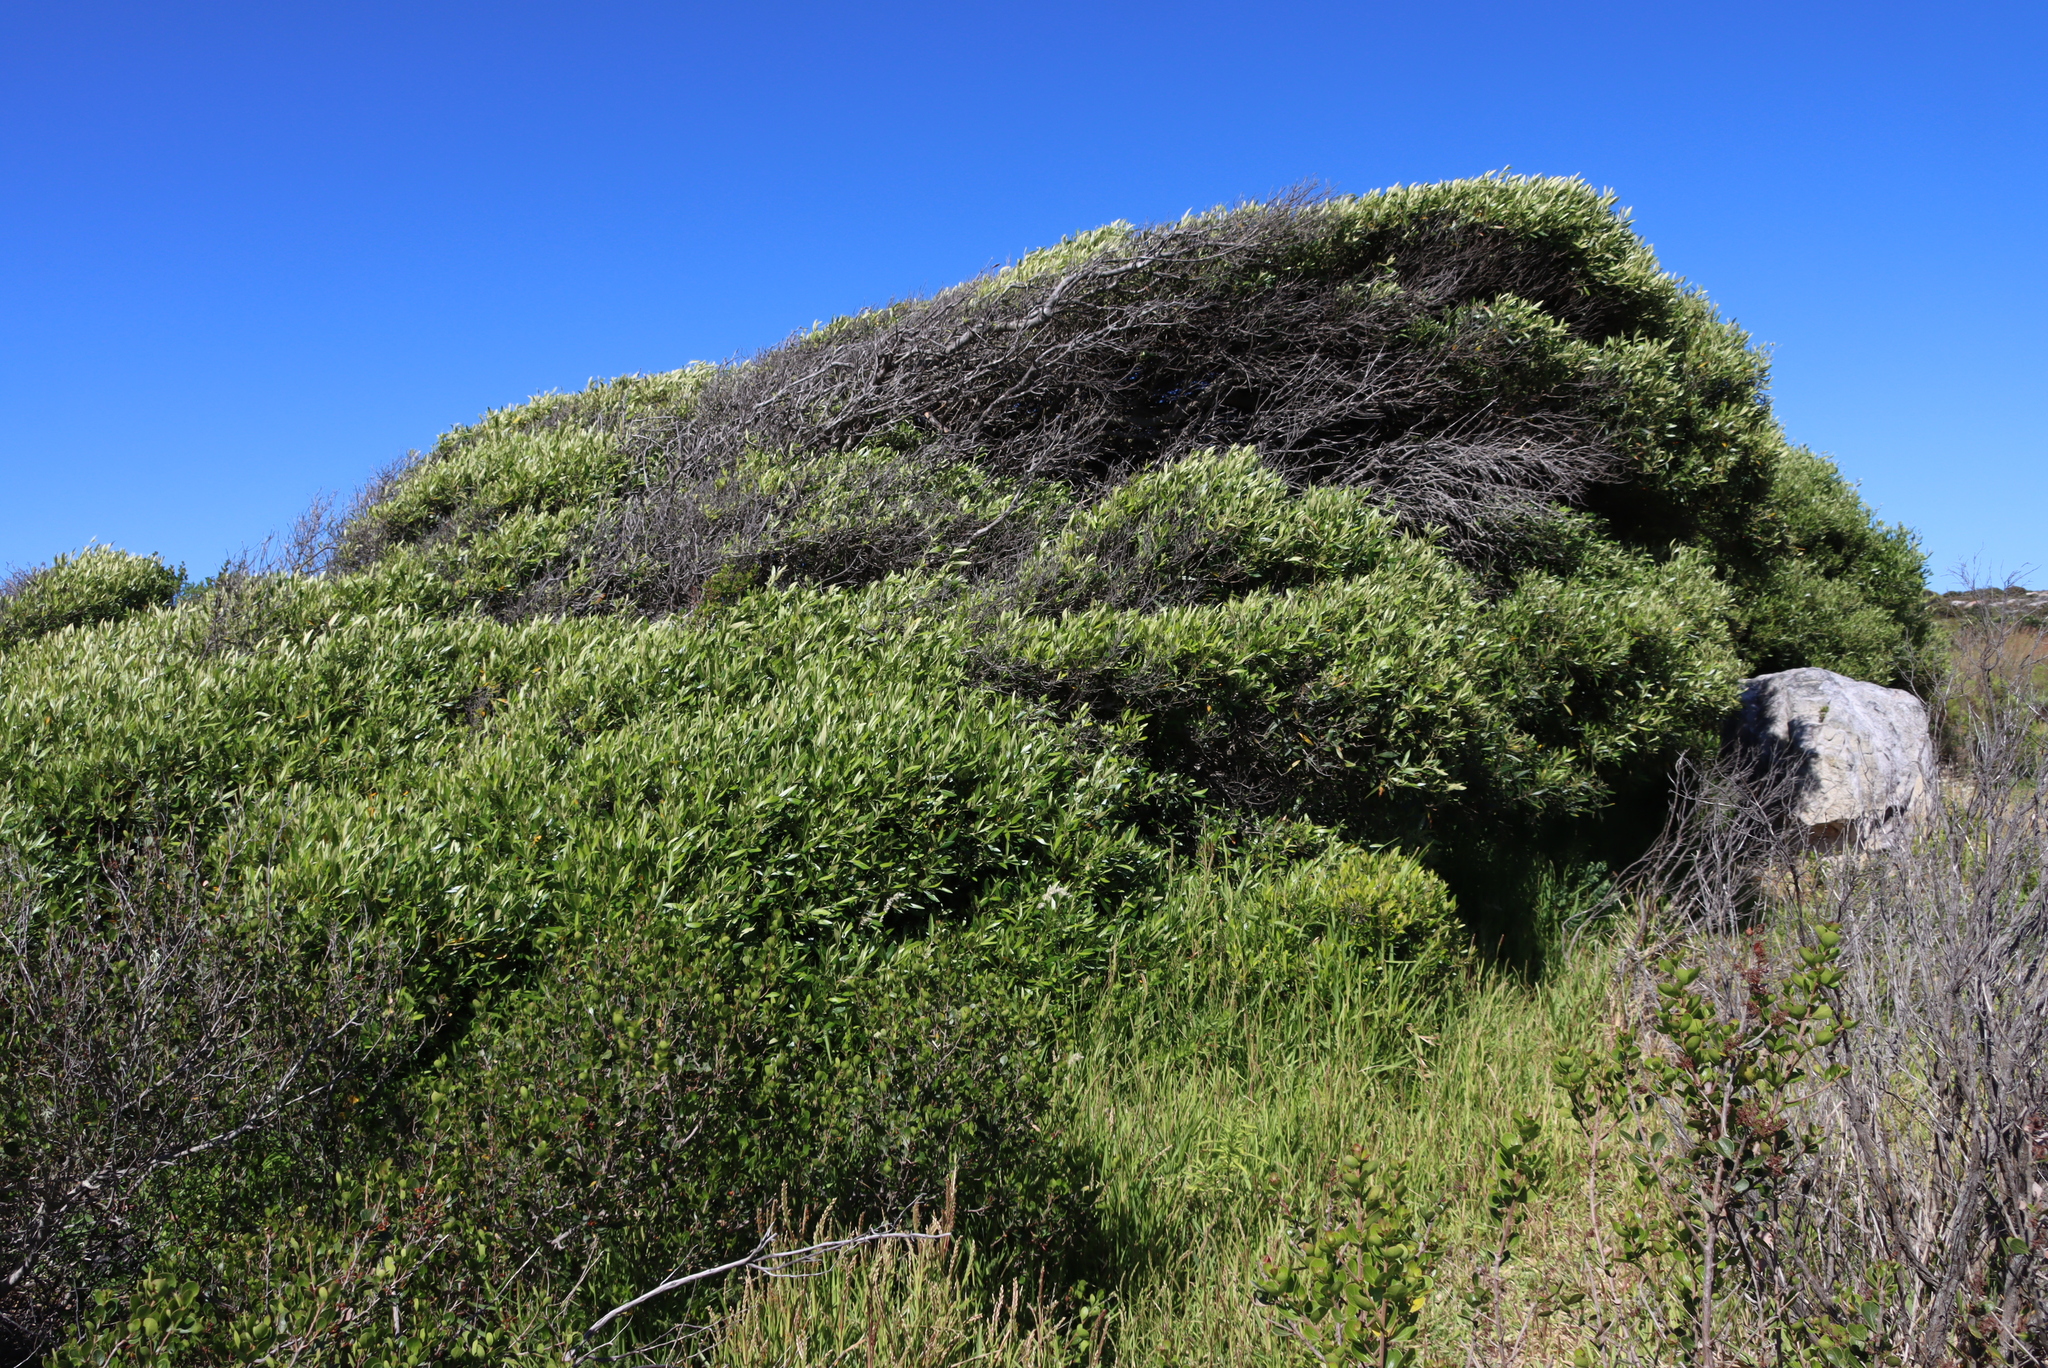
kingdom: Plantae
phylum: Tracheophyta
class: Magnoliopsida
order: Lamiales
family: Oleaceae
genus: Olea
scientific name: Olea europaea
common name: Olive
